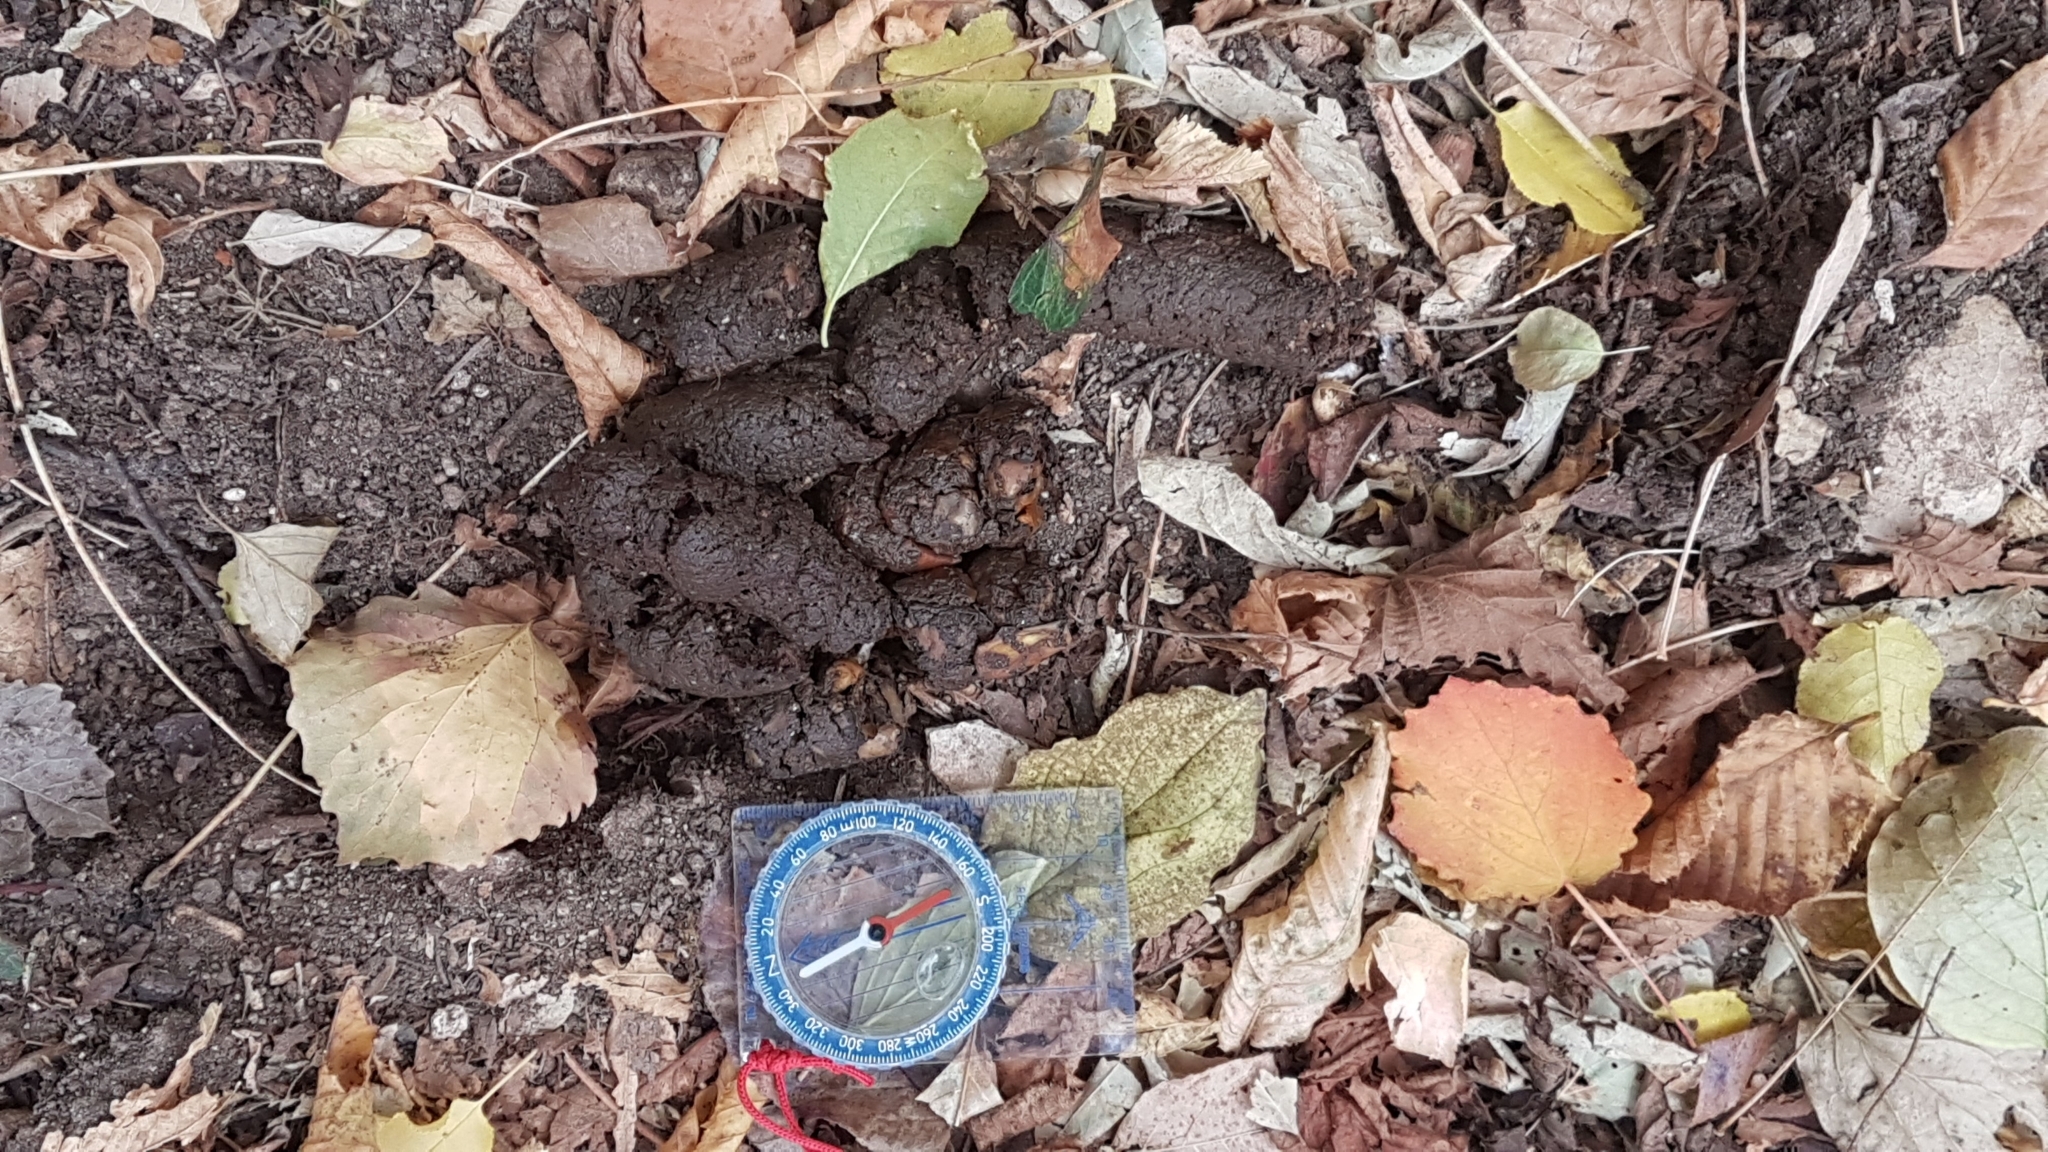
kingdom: Animalia
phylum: Chordata
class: Mammalia
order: Carnivora
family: Ursidae
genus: Ursus
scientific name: Ursus arctos
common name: Brown bear
